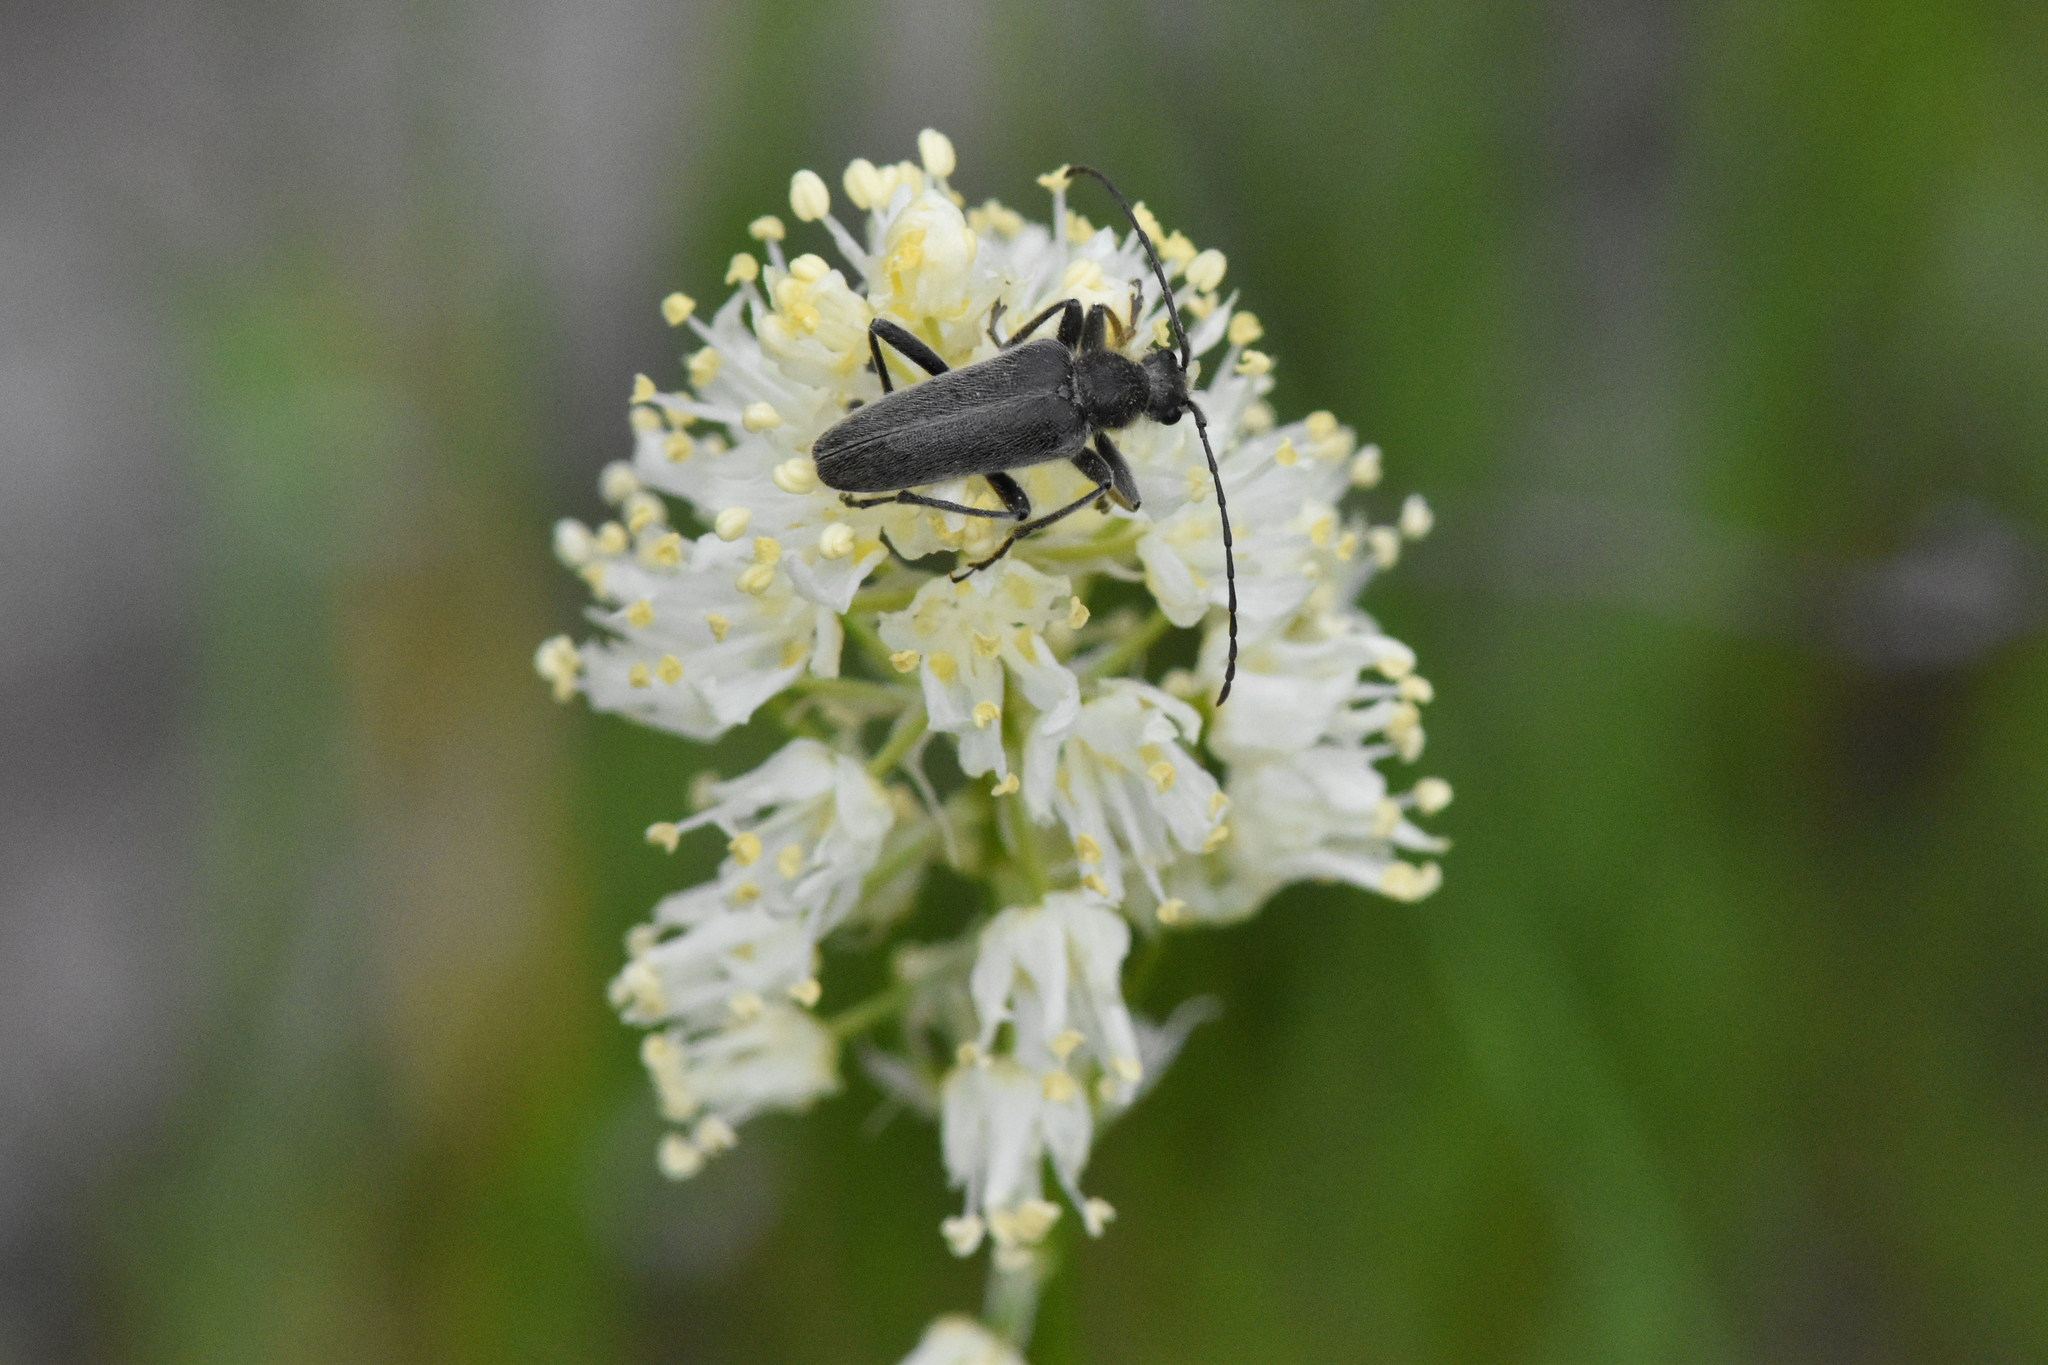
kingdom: Animalia
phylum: Arthropoda
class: Insecta
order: Coleoptera
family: Cerambycidae
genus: Cortodera
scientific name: Cortodera subpilosa
